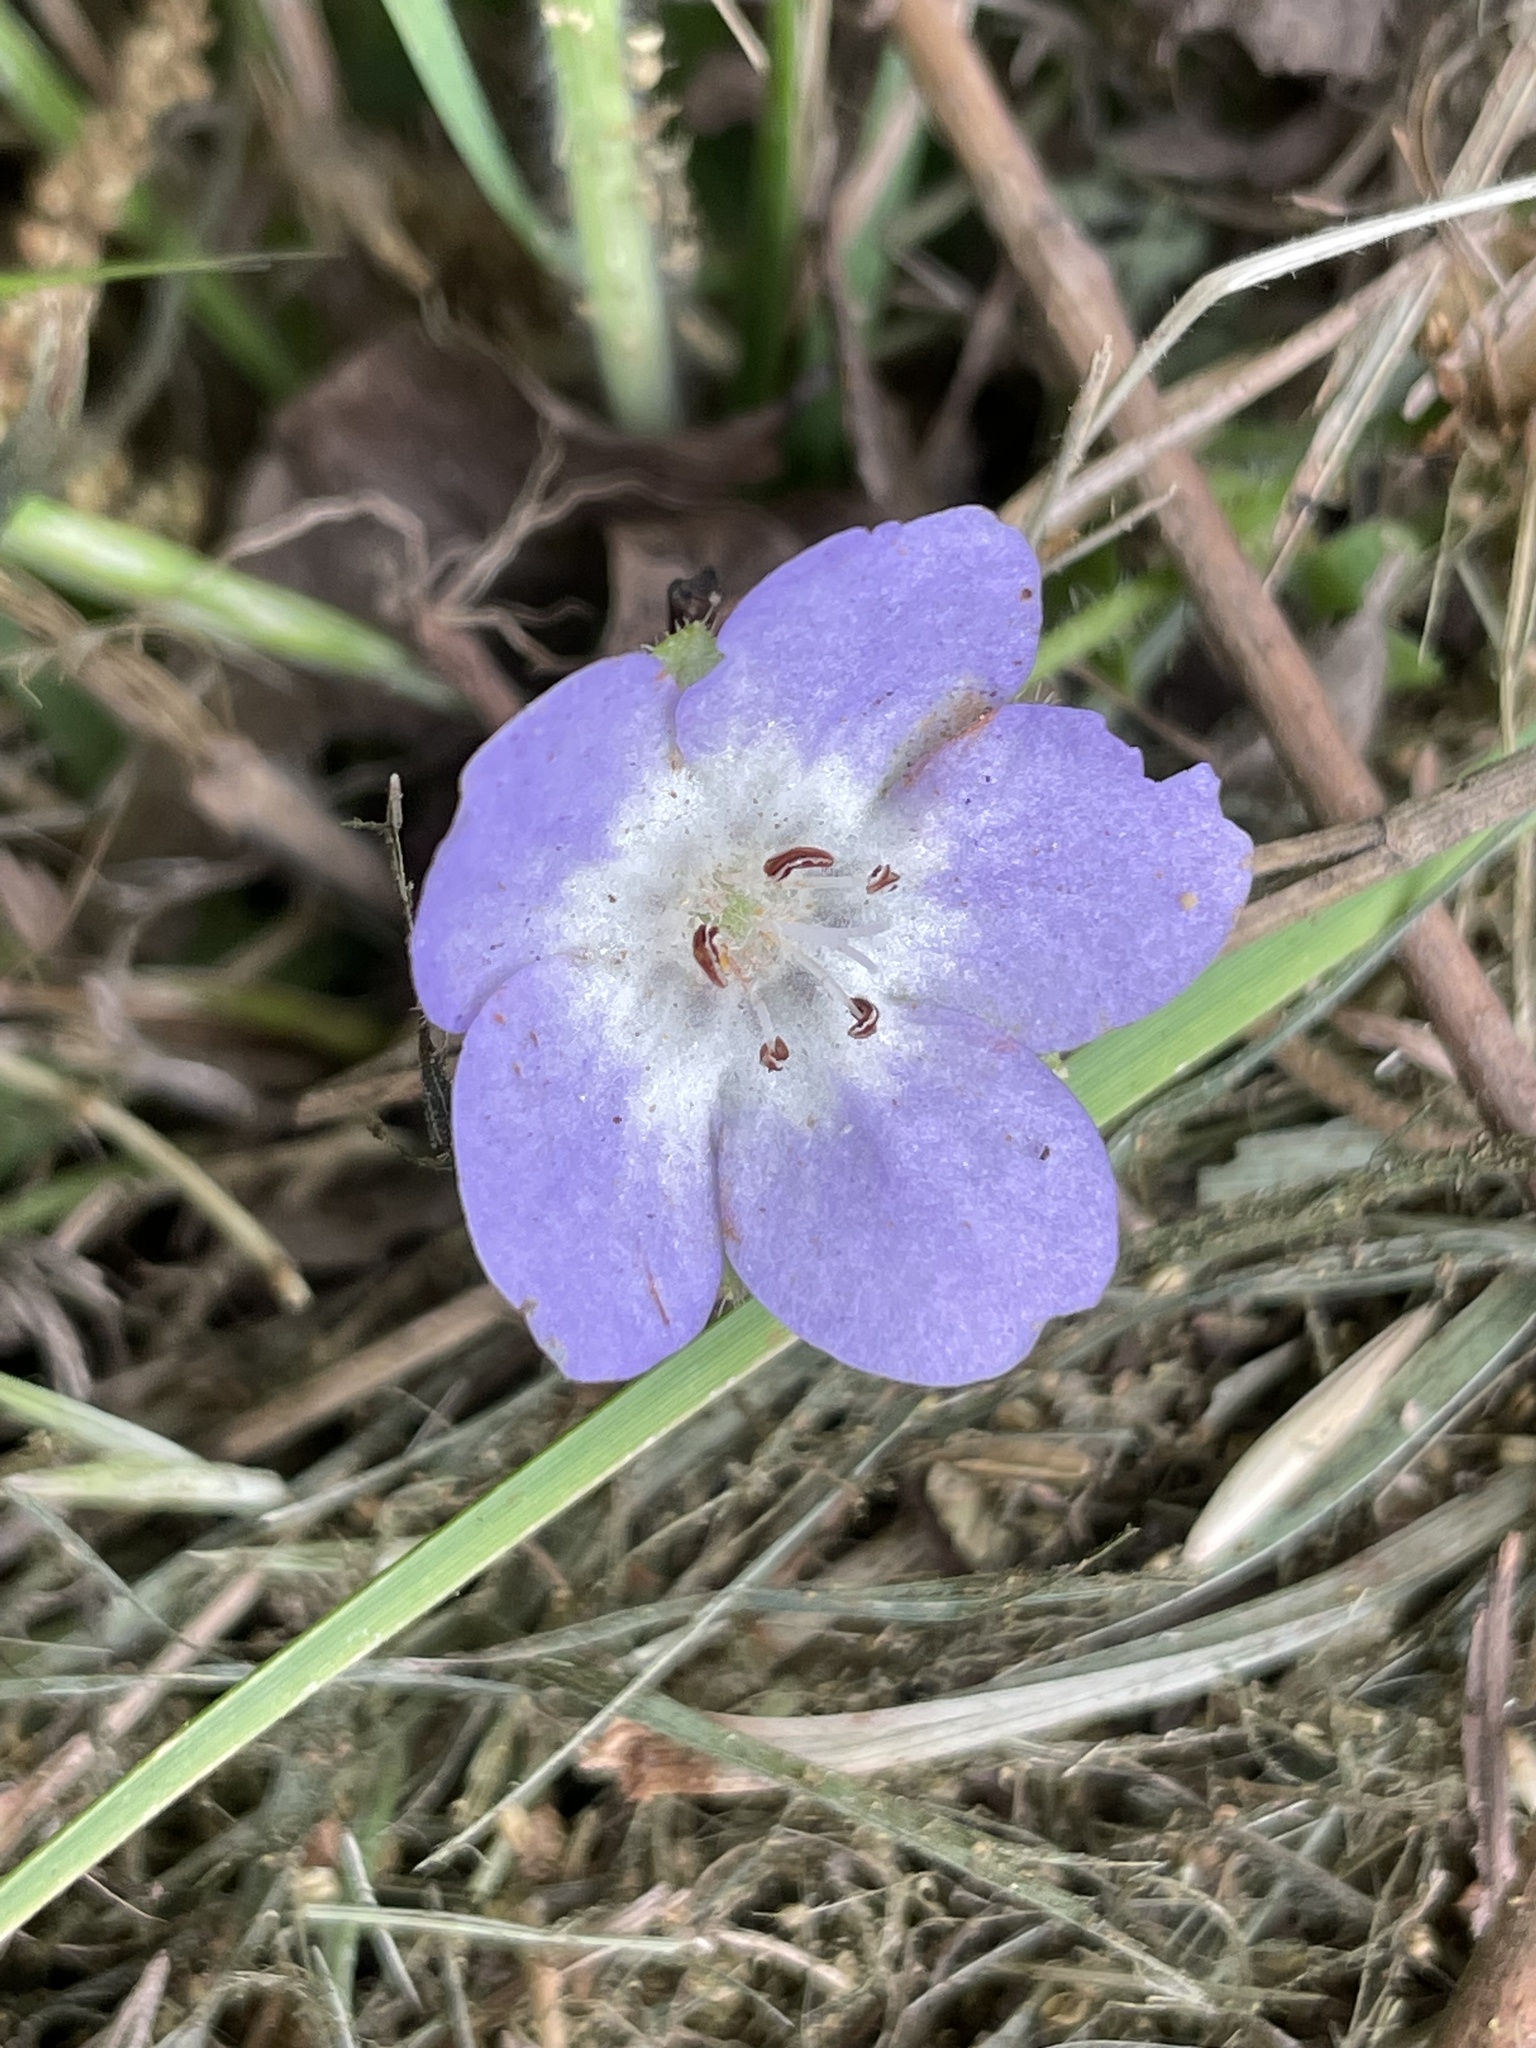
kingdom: Plantae
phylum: Tracheophyta
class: Magnoliopsida
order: Boraginales
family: Hydrophyllaceae
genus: Nemophila
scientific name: Nemophila phacelioides
